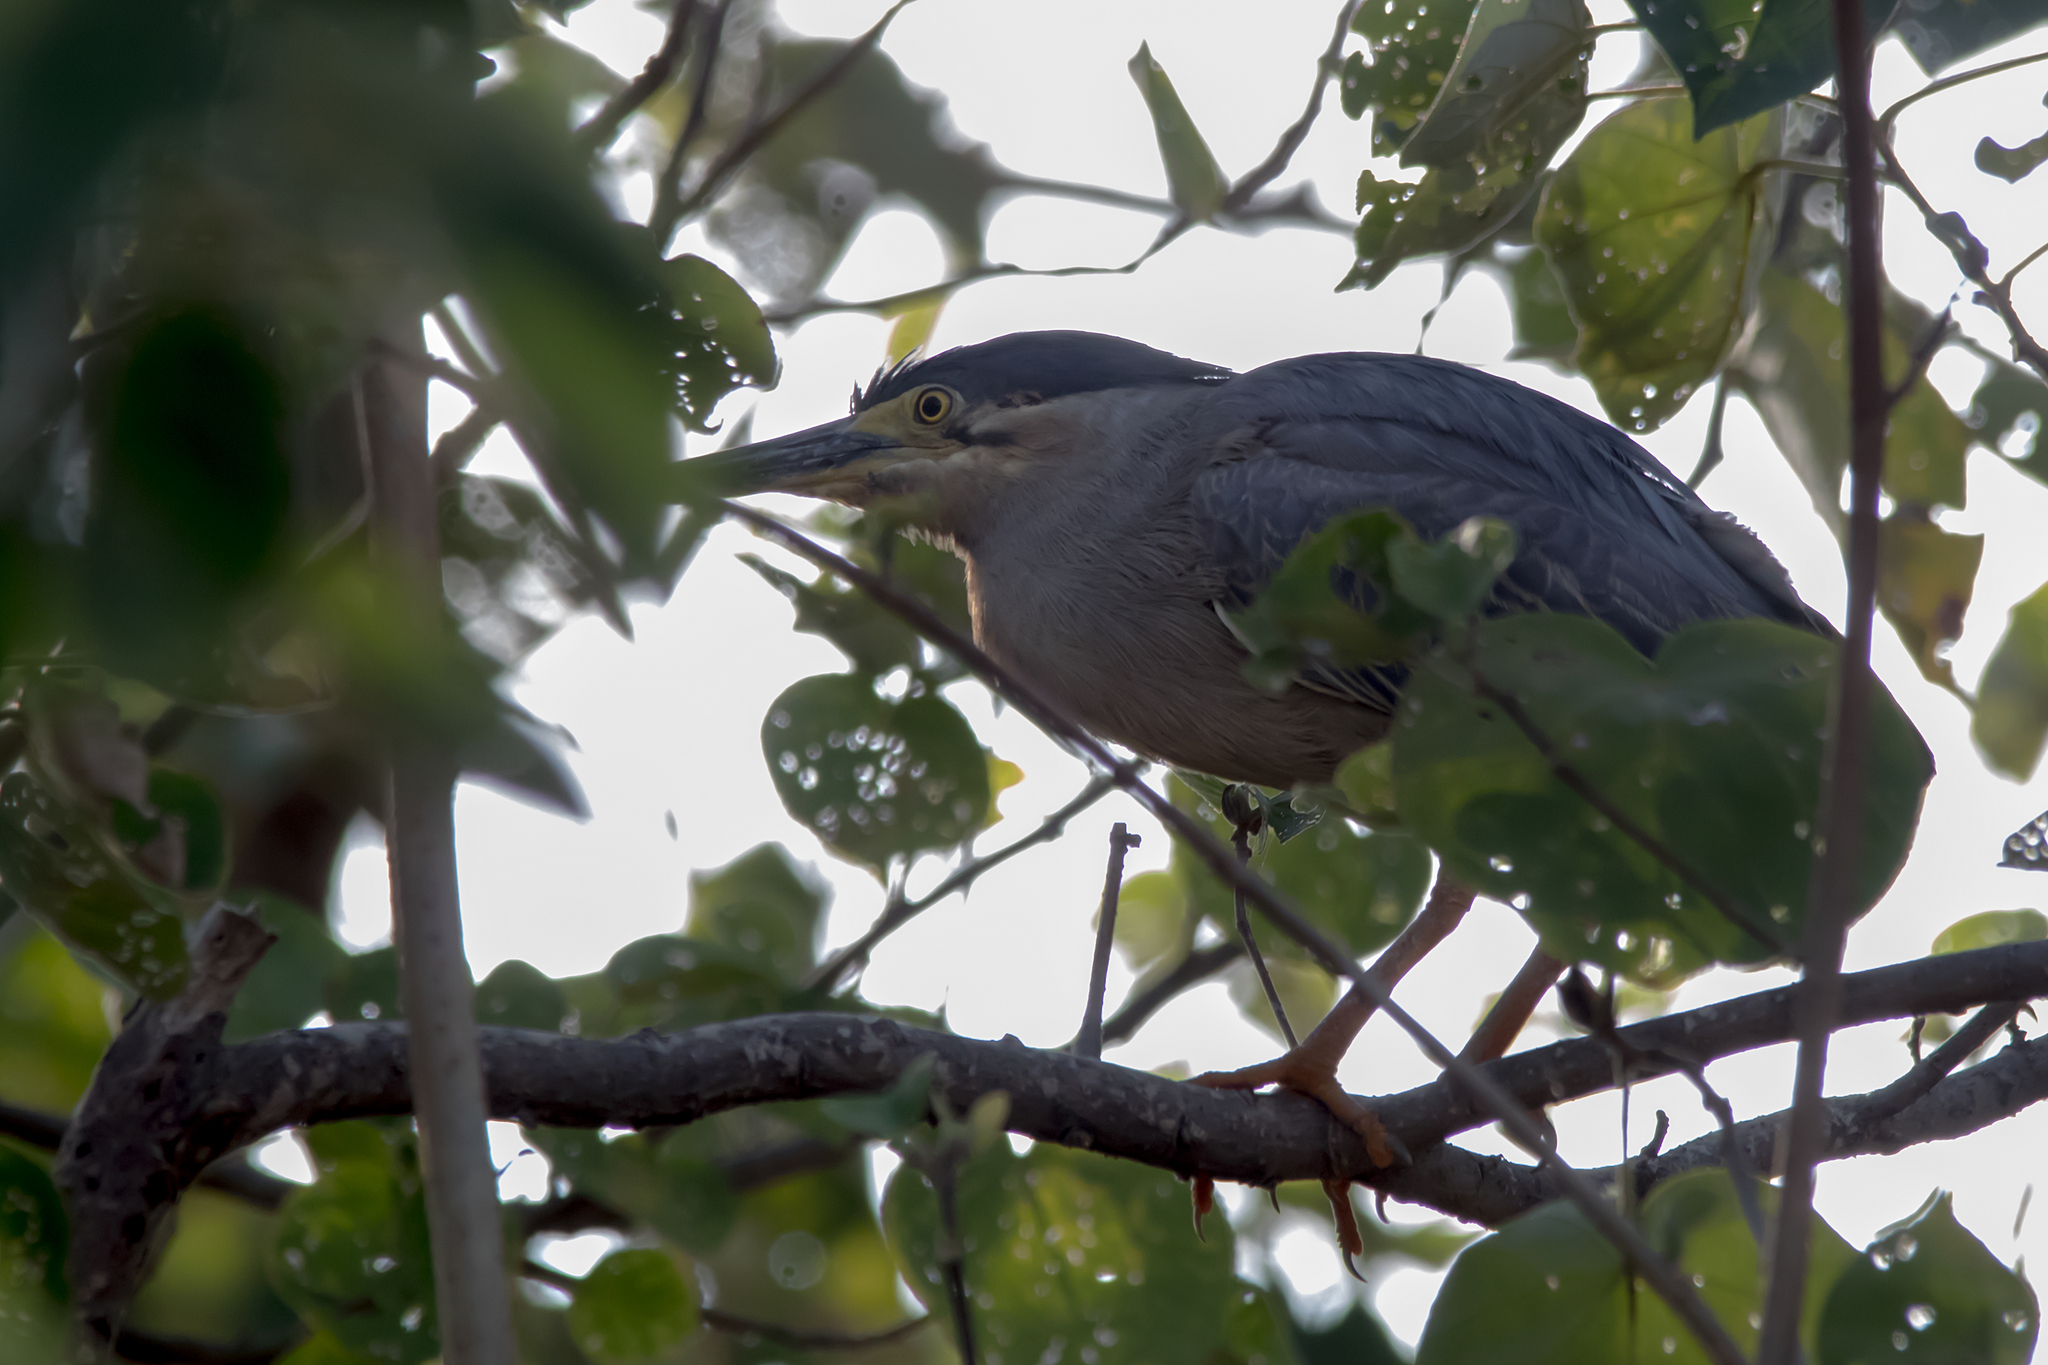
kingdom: Animalia
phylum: Chordata
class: Aves
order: Pelecaniformes
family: Ardeidae
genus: Butorides
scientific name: Butorides striata
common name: Striated heron
